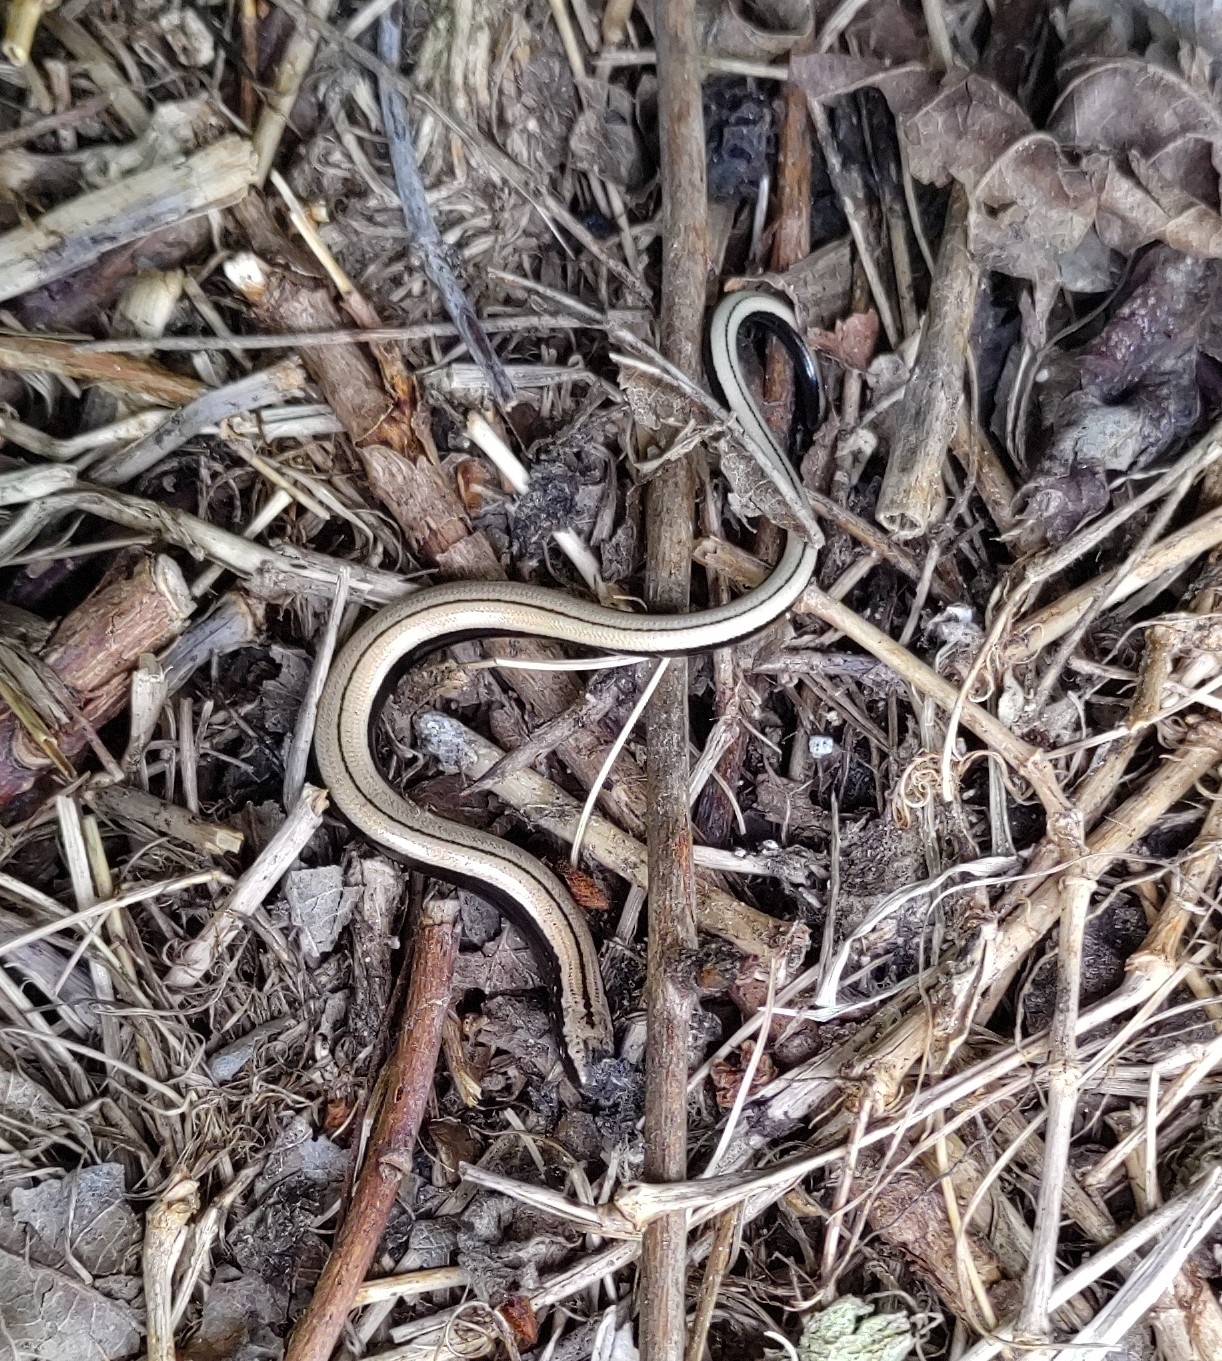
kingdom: Animalia
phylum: Chordata
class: Squamata
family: Anguidae
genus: Anguis
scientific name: Anguis fragilis
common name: Slow worm
